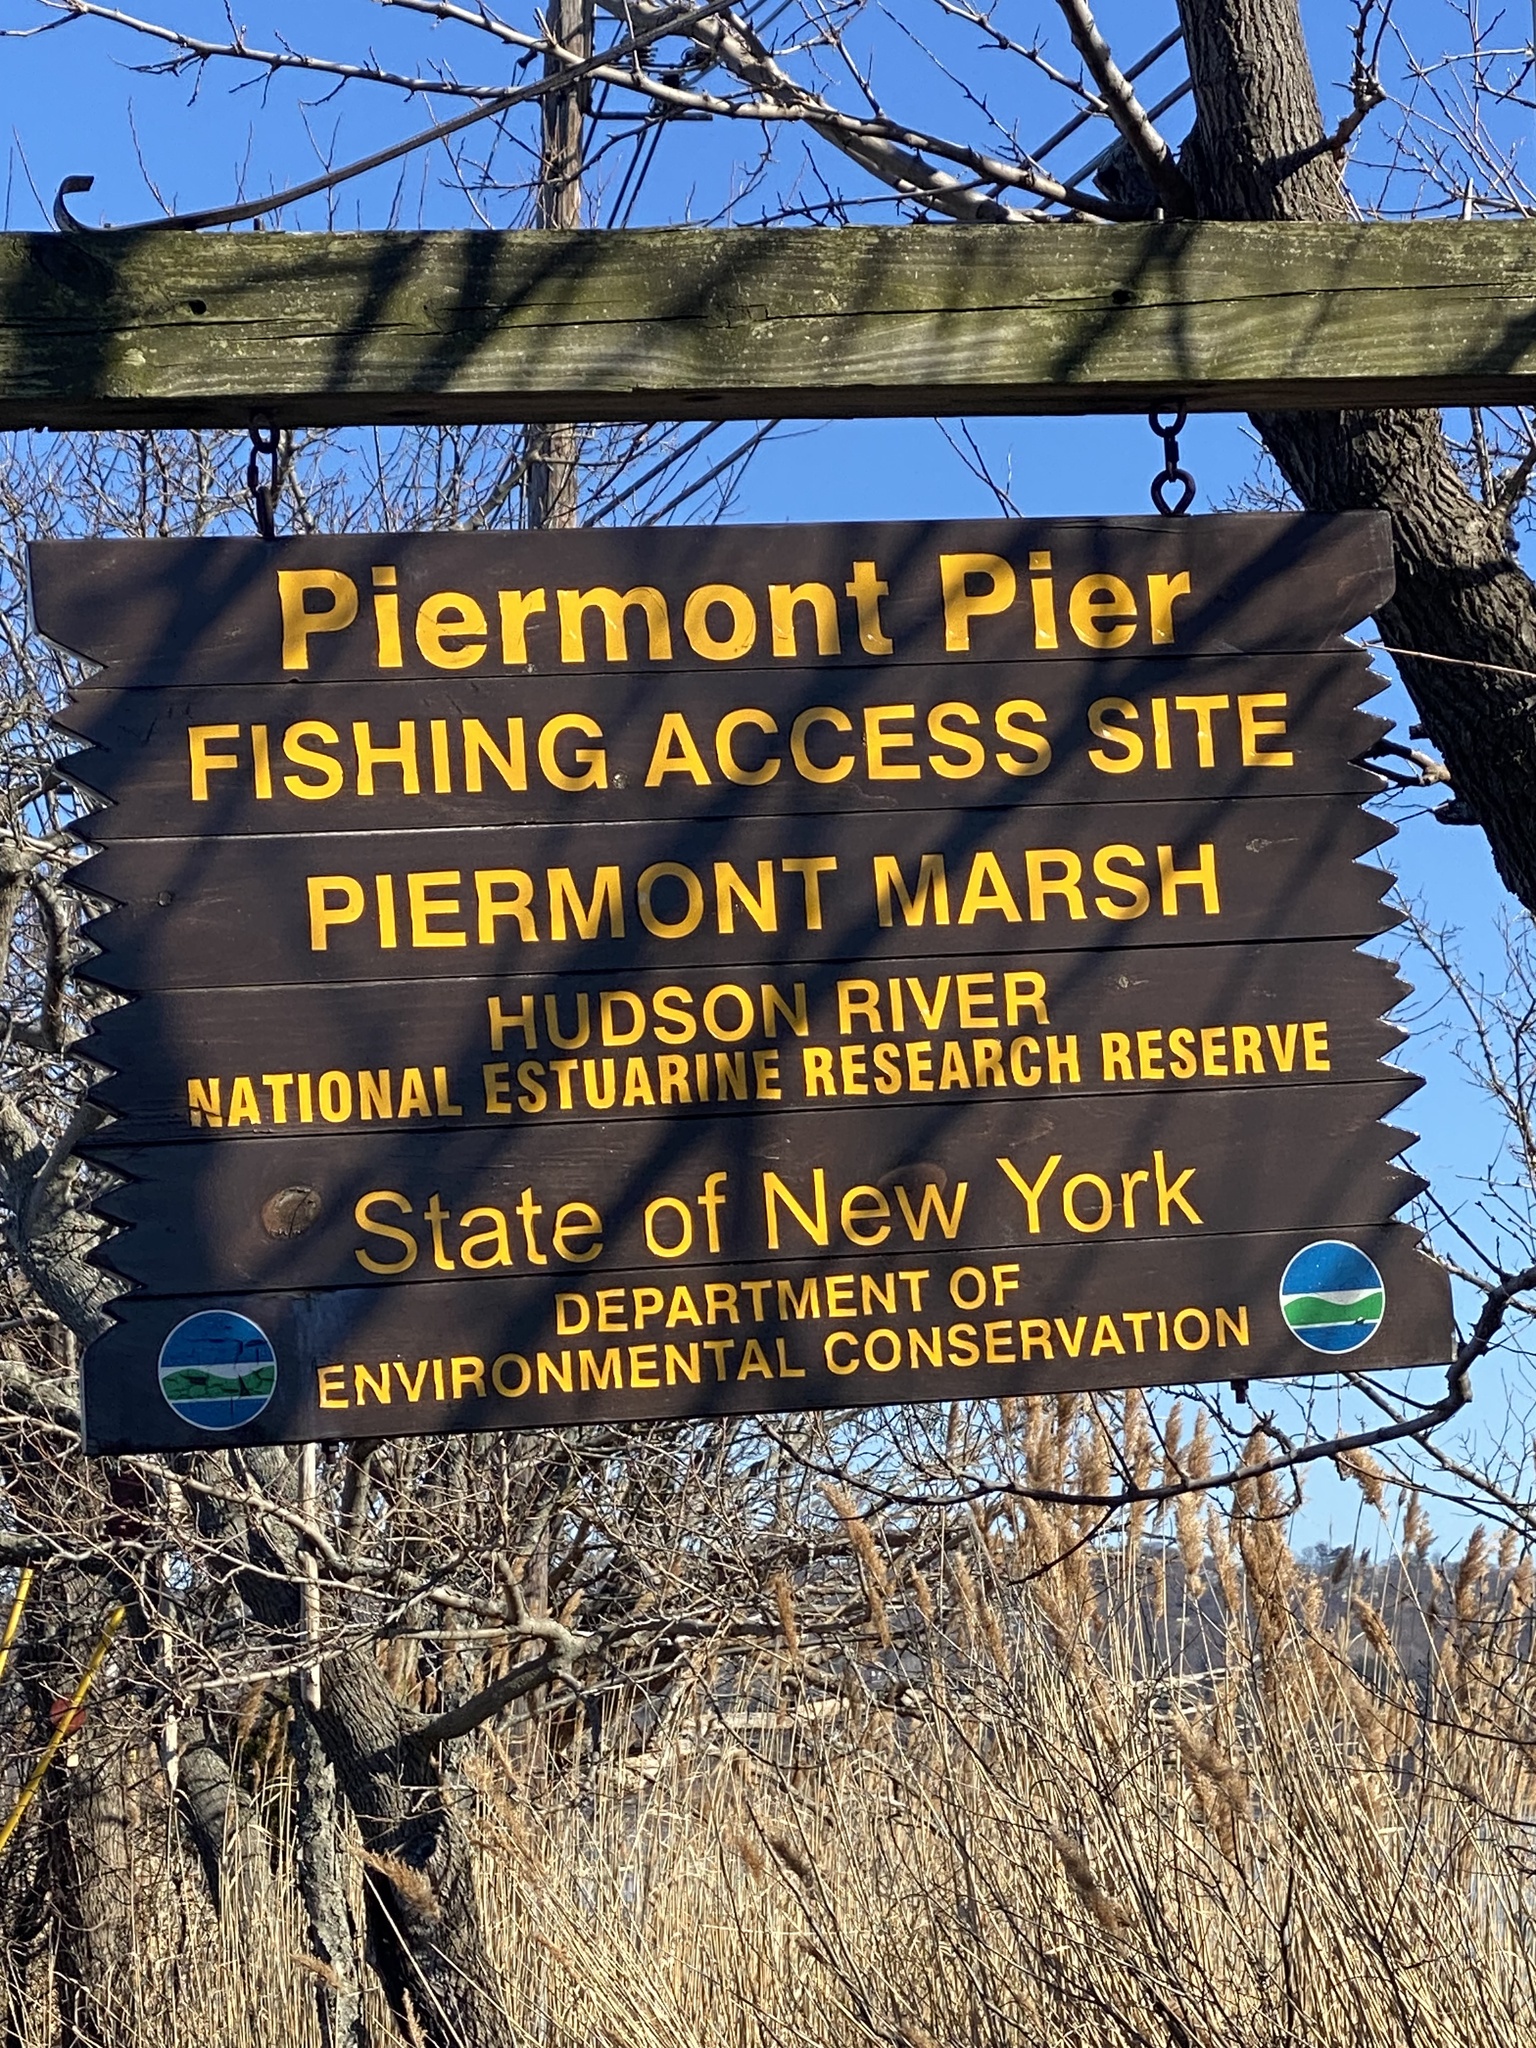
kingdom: Animalia
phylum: Chordata
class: Aves
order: Charadriiformes
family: Laridae
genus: Larus
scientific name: Larus argentatus
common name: Herring gull
